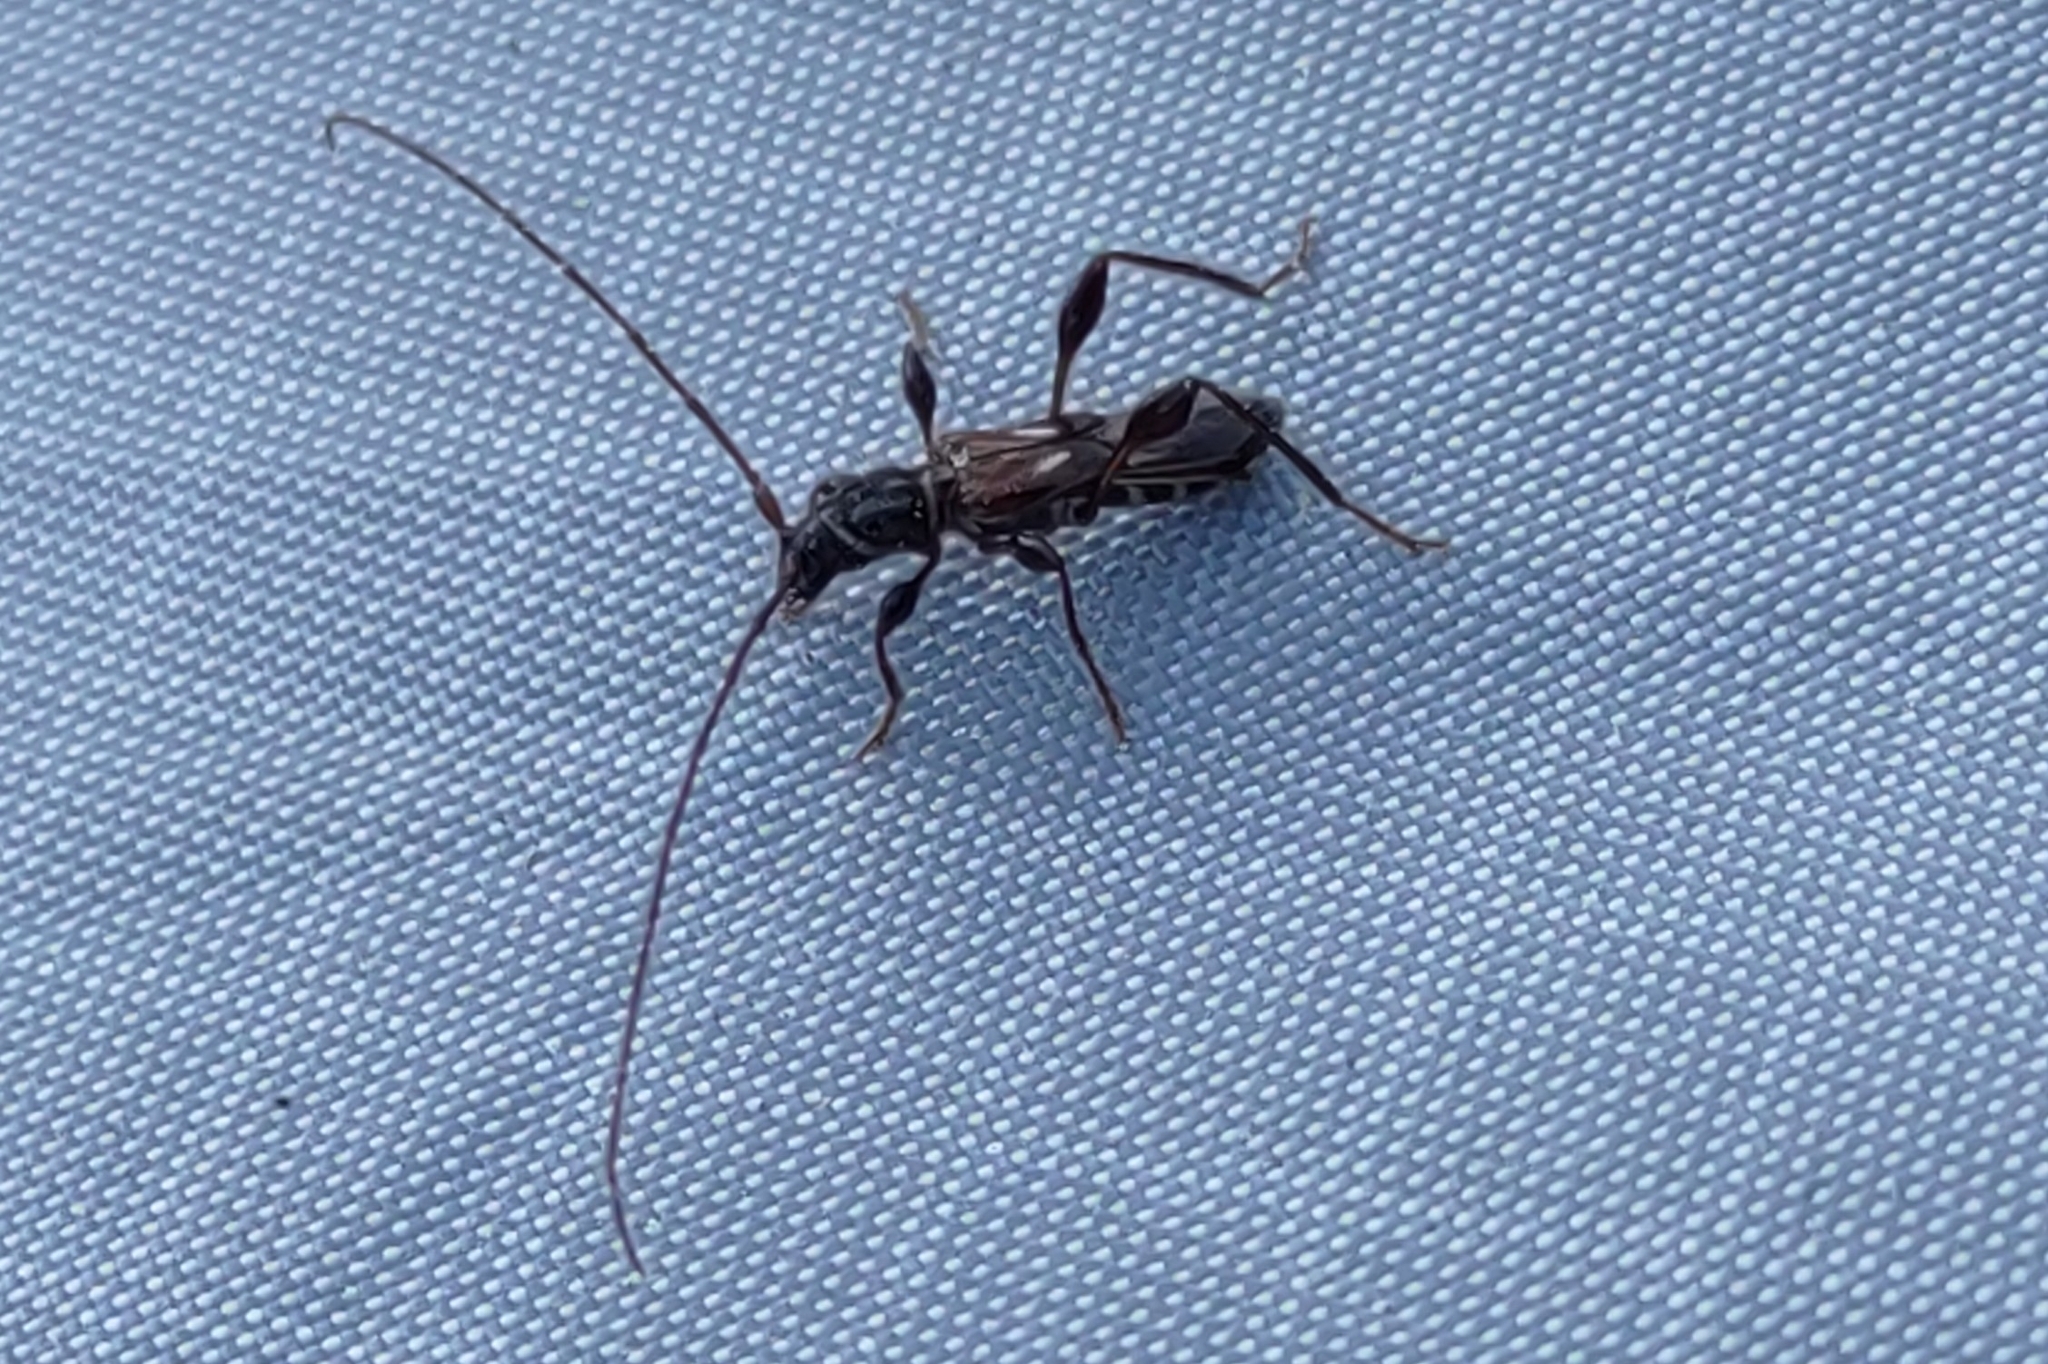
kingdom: Animalia
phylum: Arthropoda
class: Insecta
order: Coleoptera
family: Cerambycidae
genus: Molorchus
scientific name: Molorchus minor
